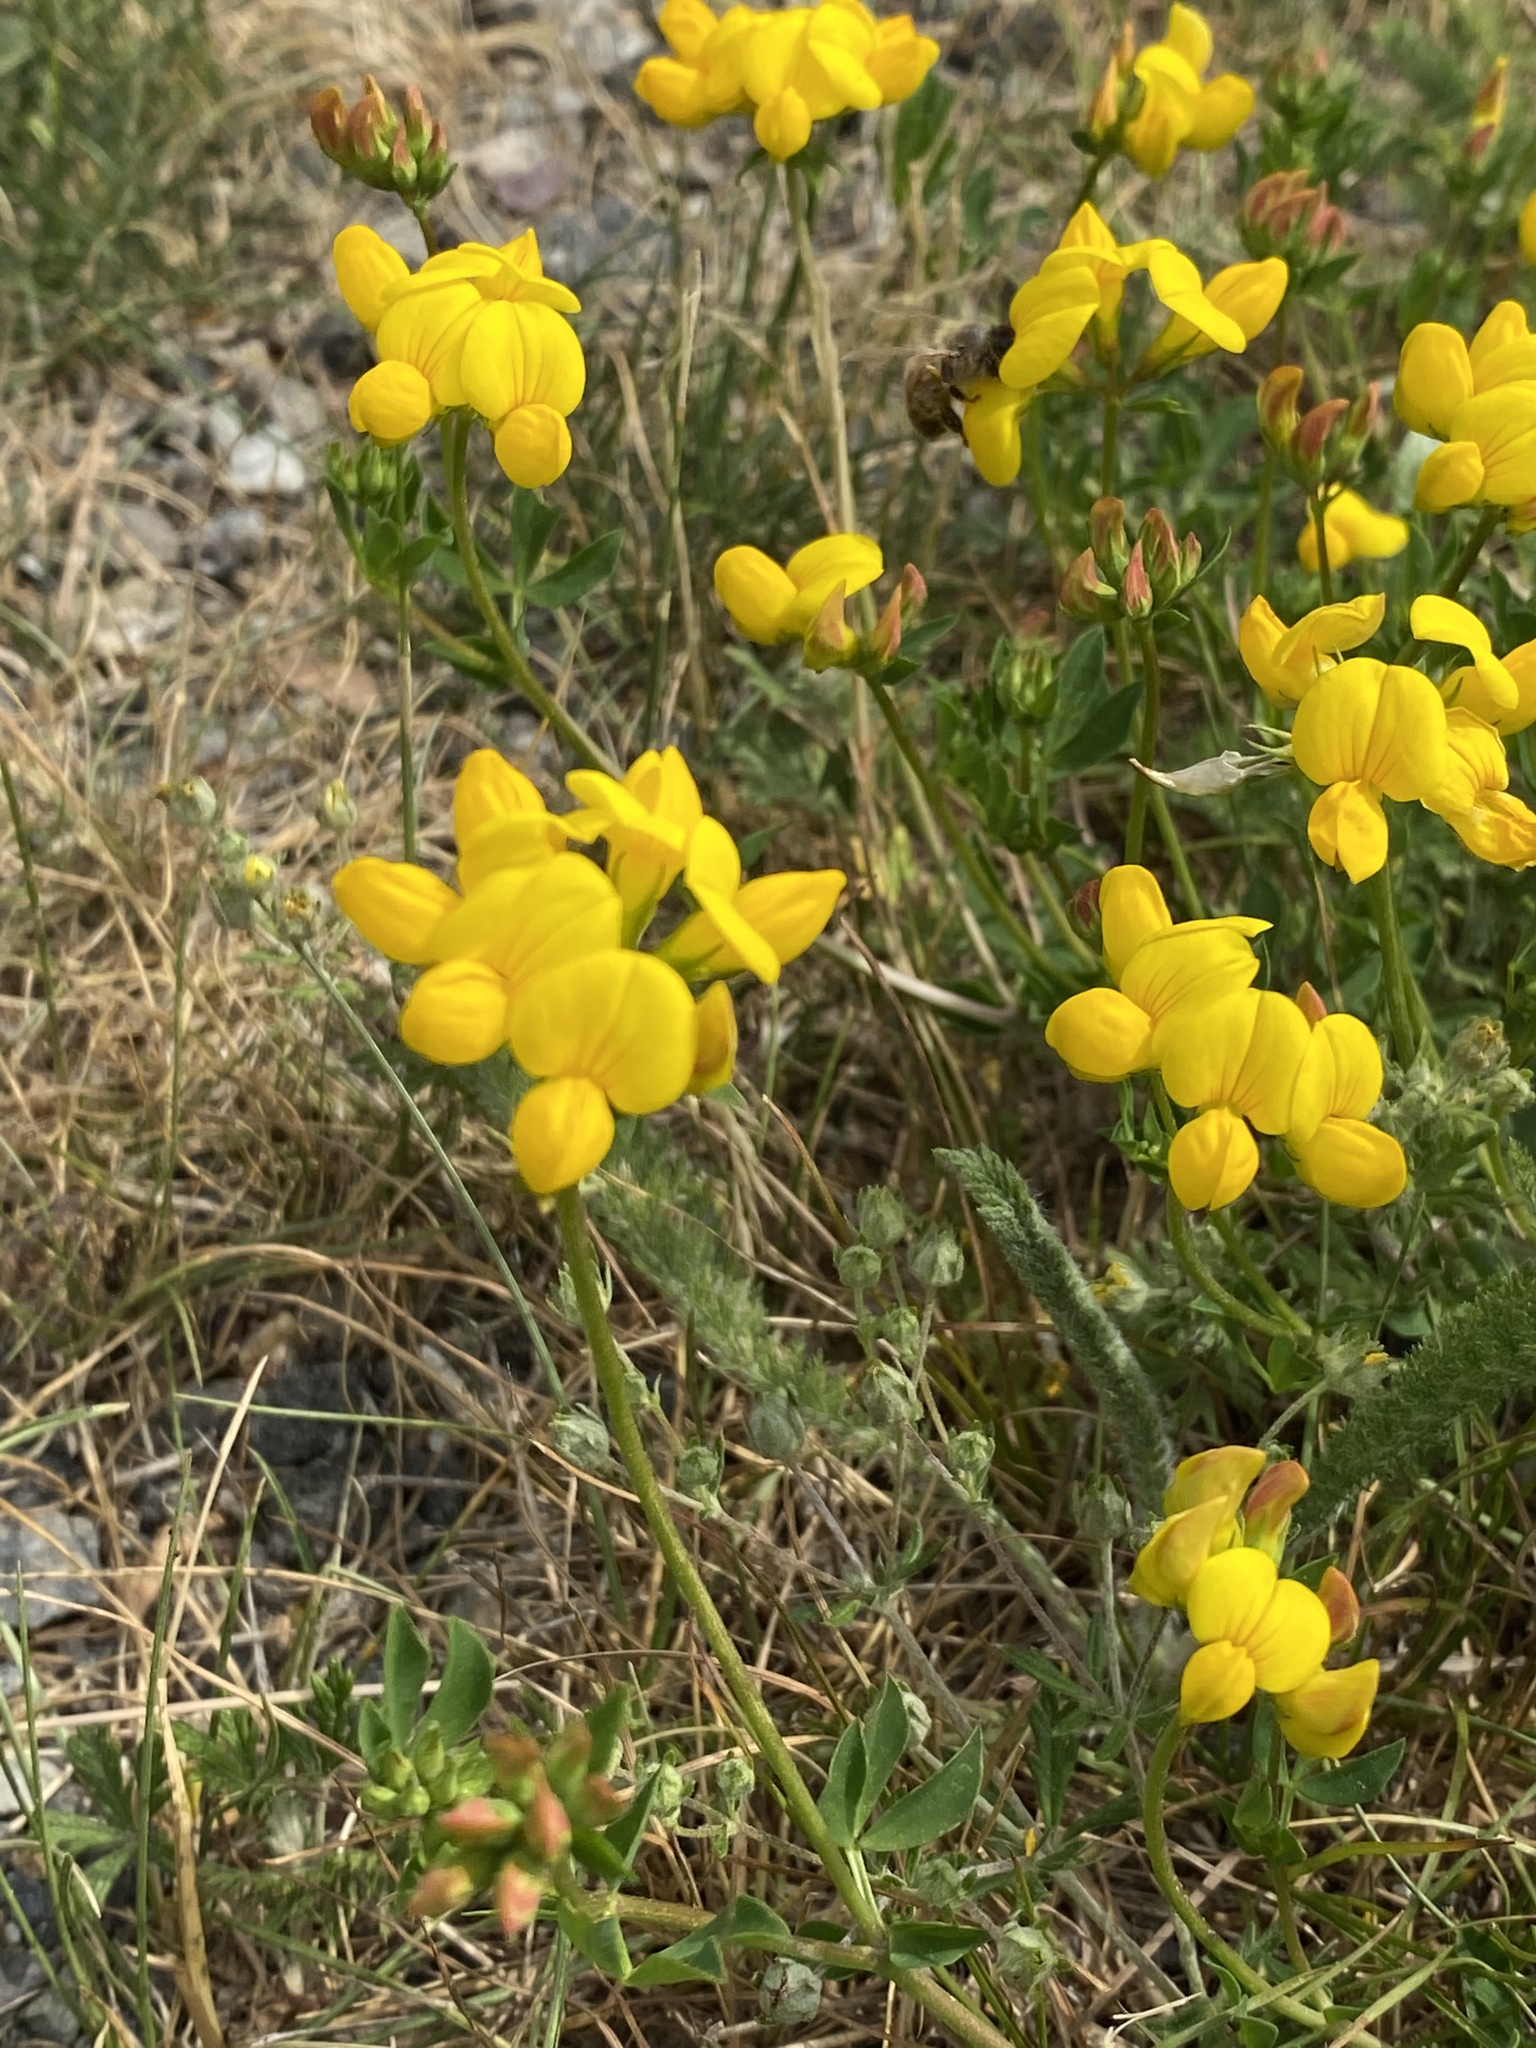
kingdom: Plantae
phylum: Tracheophyta
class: Magnoliopsida
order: Fabales
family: Fabaceae
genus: Lotus
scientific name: Lotus corniculatus
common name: Common bird's-foot-trefoil
